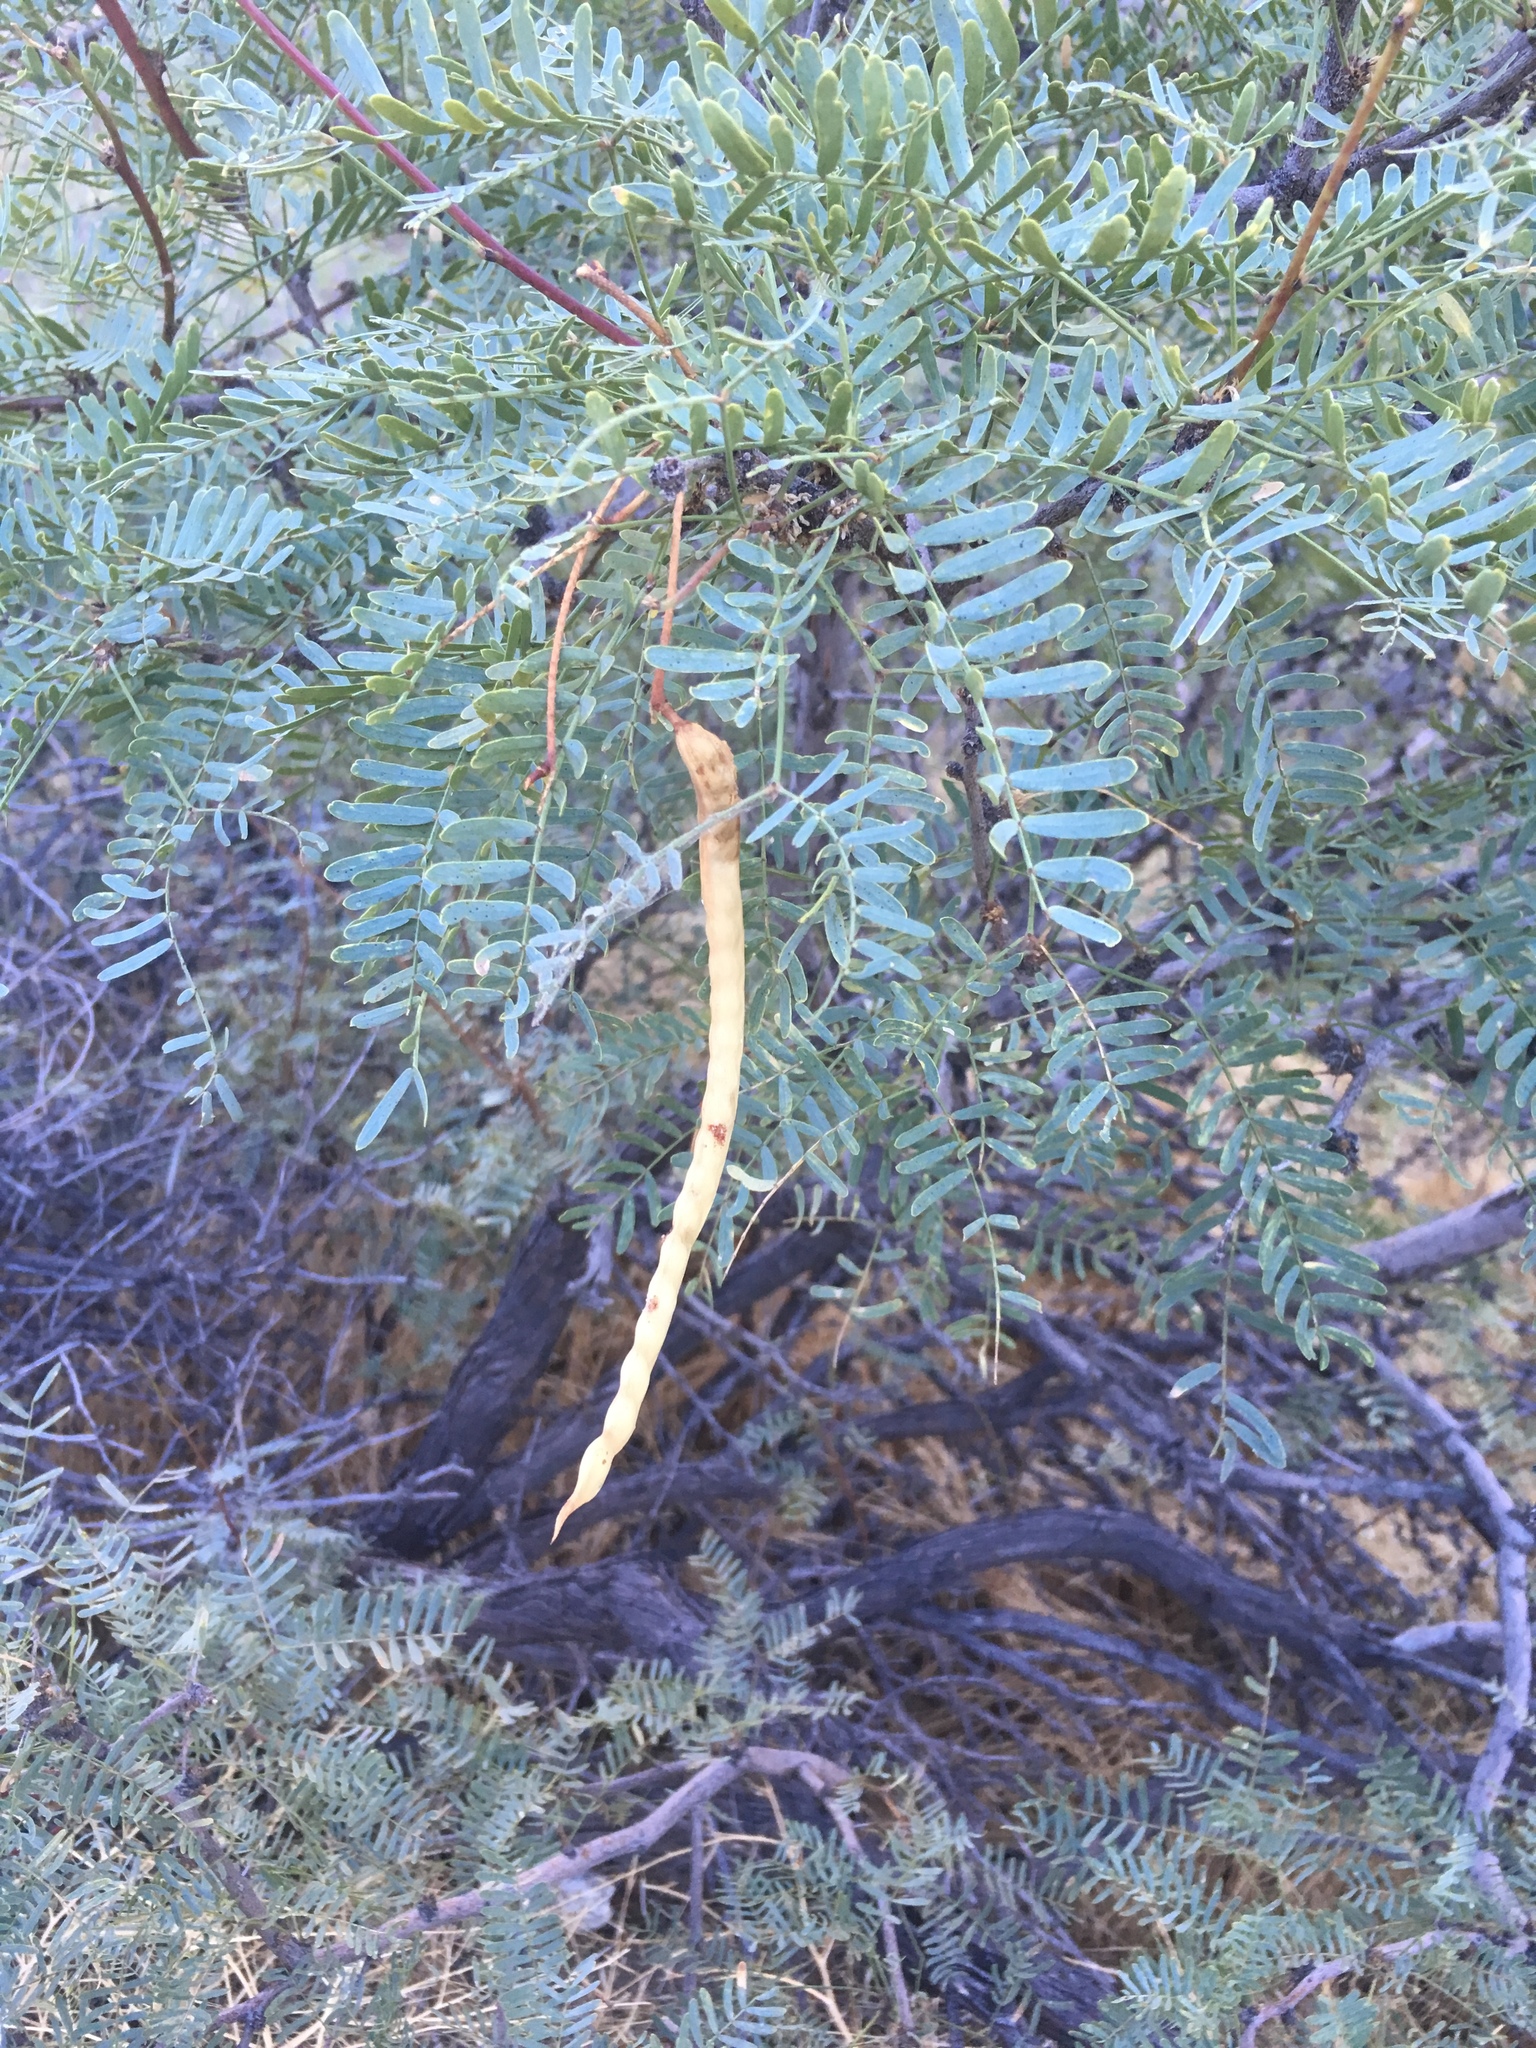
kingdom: Plantae
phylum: Tracheophyta
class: Magnoliopsida
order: Fabales
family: Fabaceae
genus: Prosopis
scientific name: Prosopis pubescens
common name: Screw-bean
